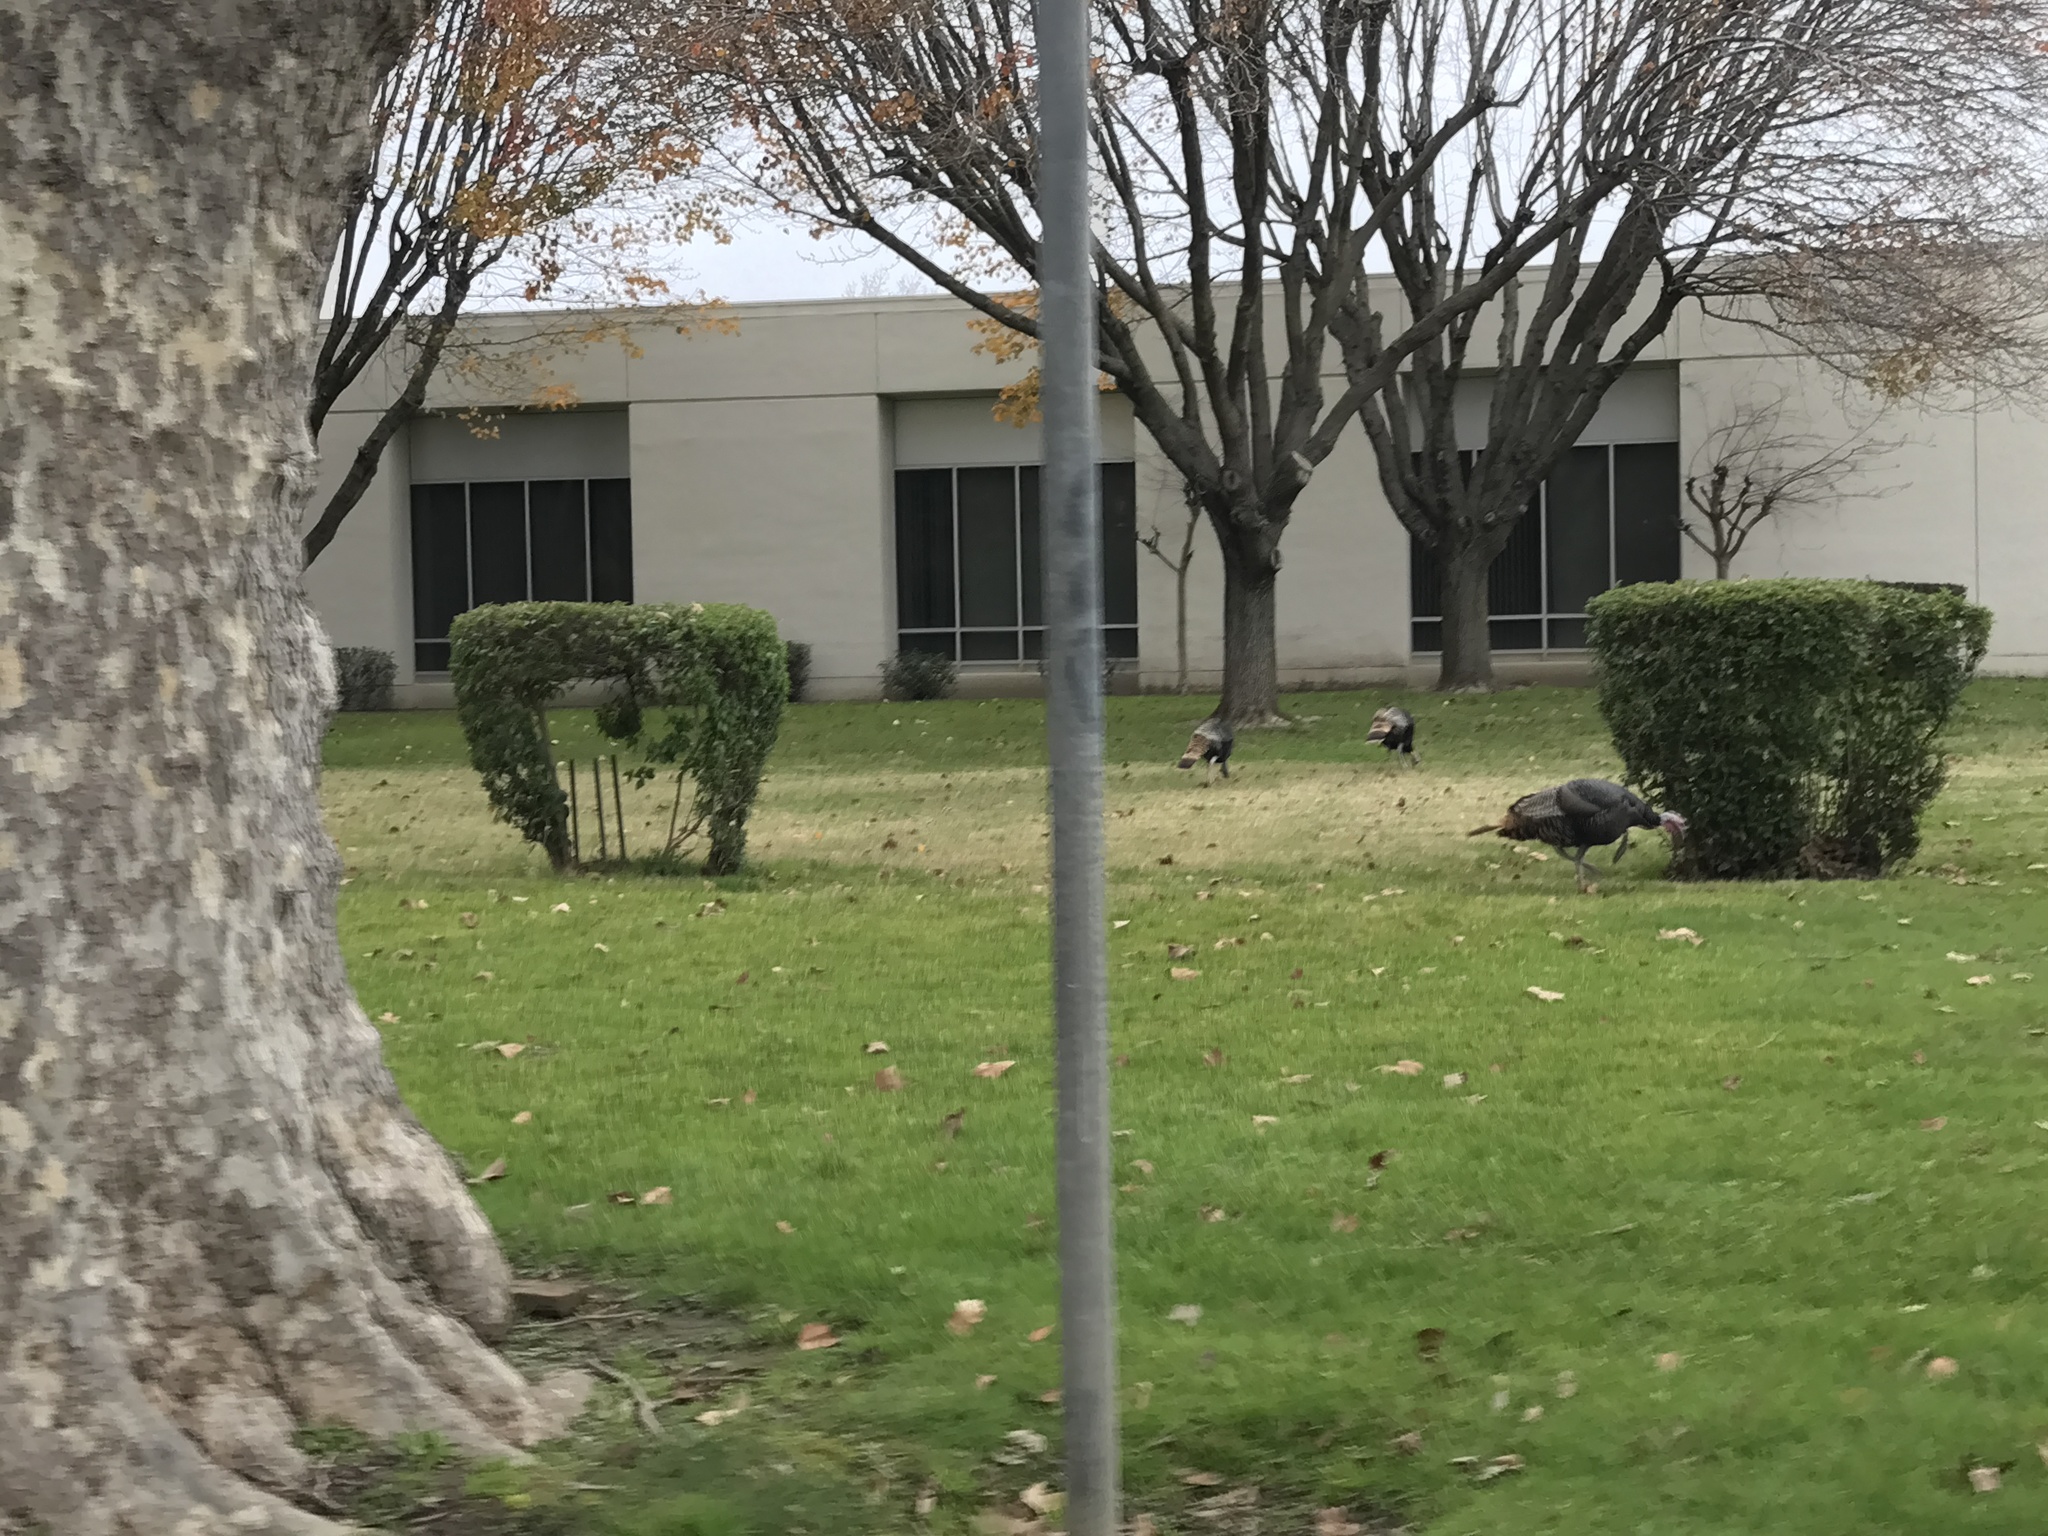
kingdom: Animalia
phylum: Chordata
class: Aves
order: Galliformes
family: Phasianidae
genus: Meleagris
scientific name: Meleagris gallopavo
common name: Wild turkey
